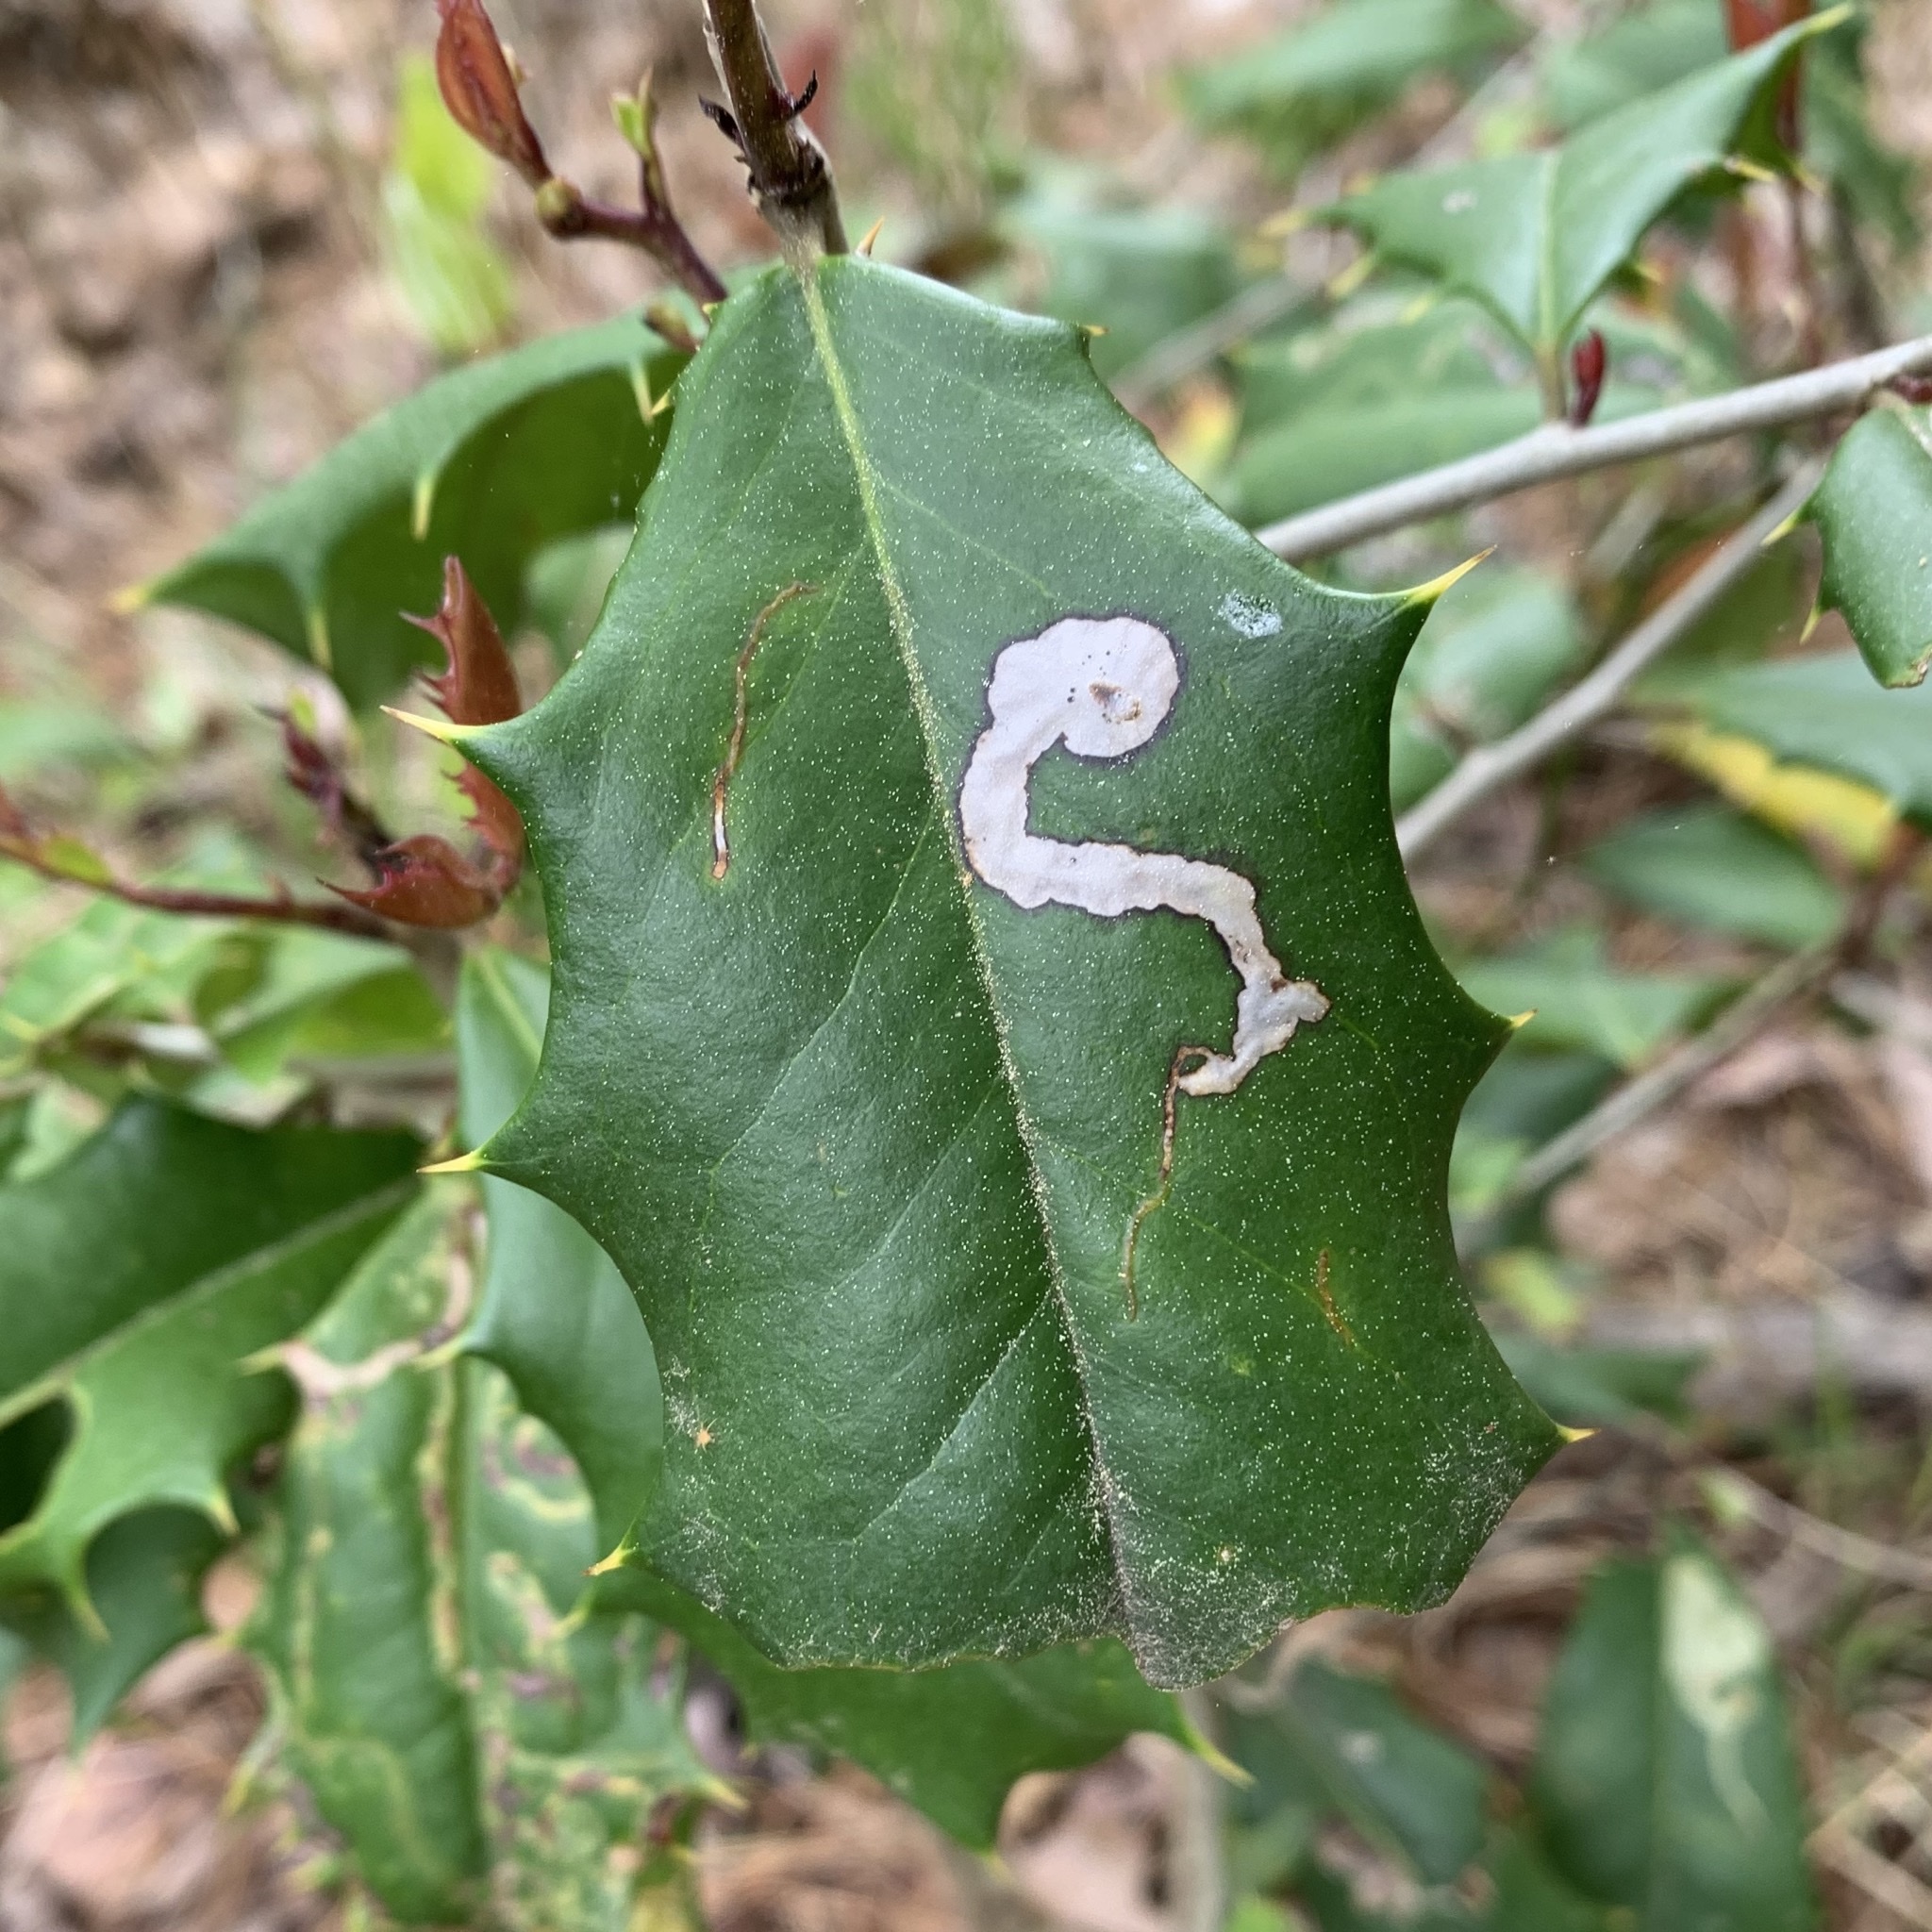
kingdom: Animalia
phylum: Arthropoda
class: Insecta
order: Diptera
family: Agromyzidae
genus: Phytomyza
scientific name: Phytomyza ilicicola
